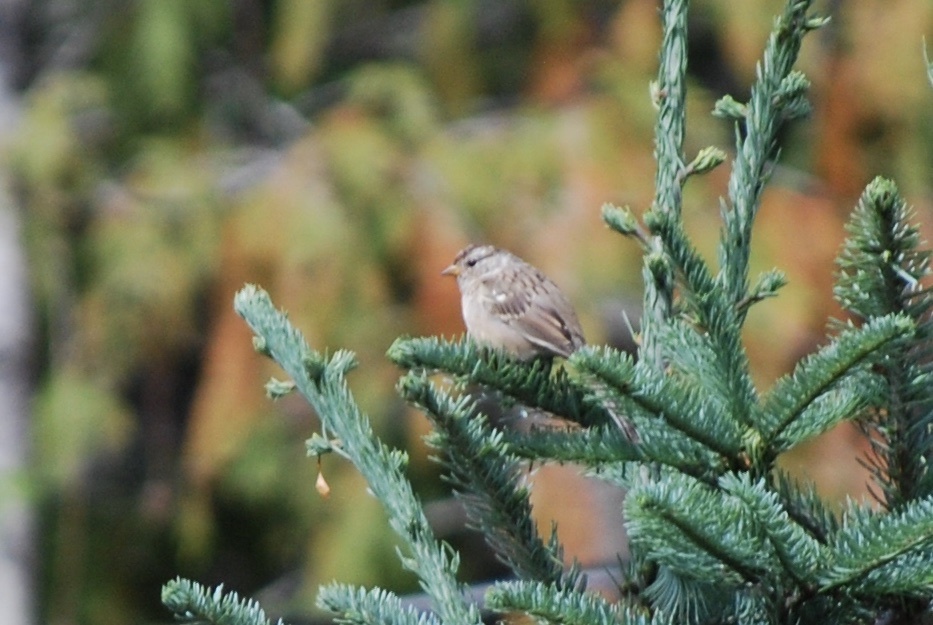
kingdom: Animalia
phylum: Chordata
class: Aves
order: Passeriformes
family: Passerellidae
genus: Zonotrichia
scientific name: Zonotrichia leucophrys
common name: White-crowned sparrow
